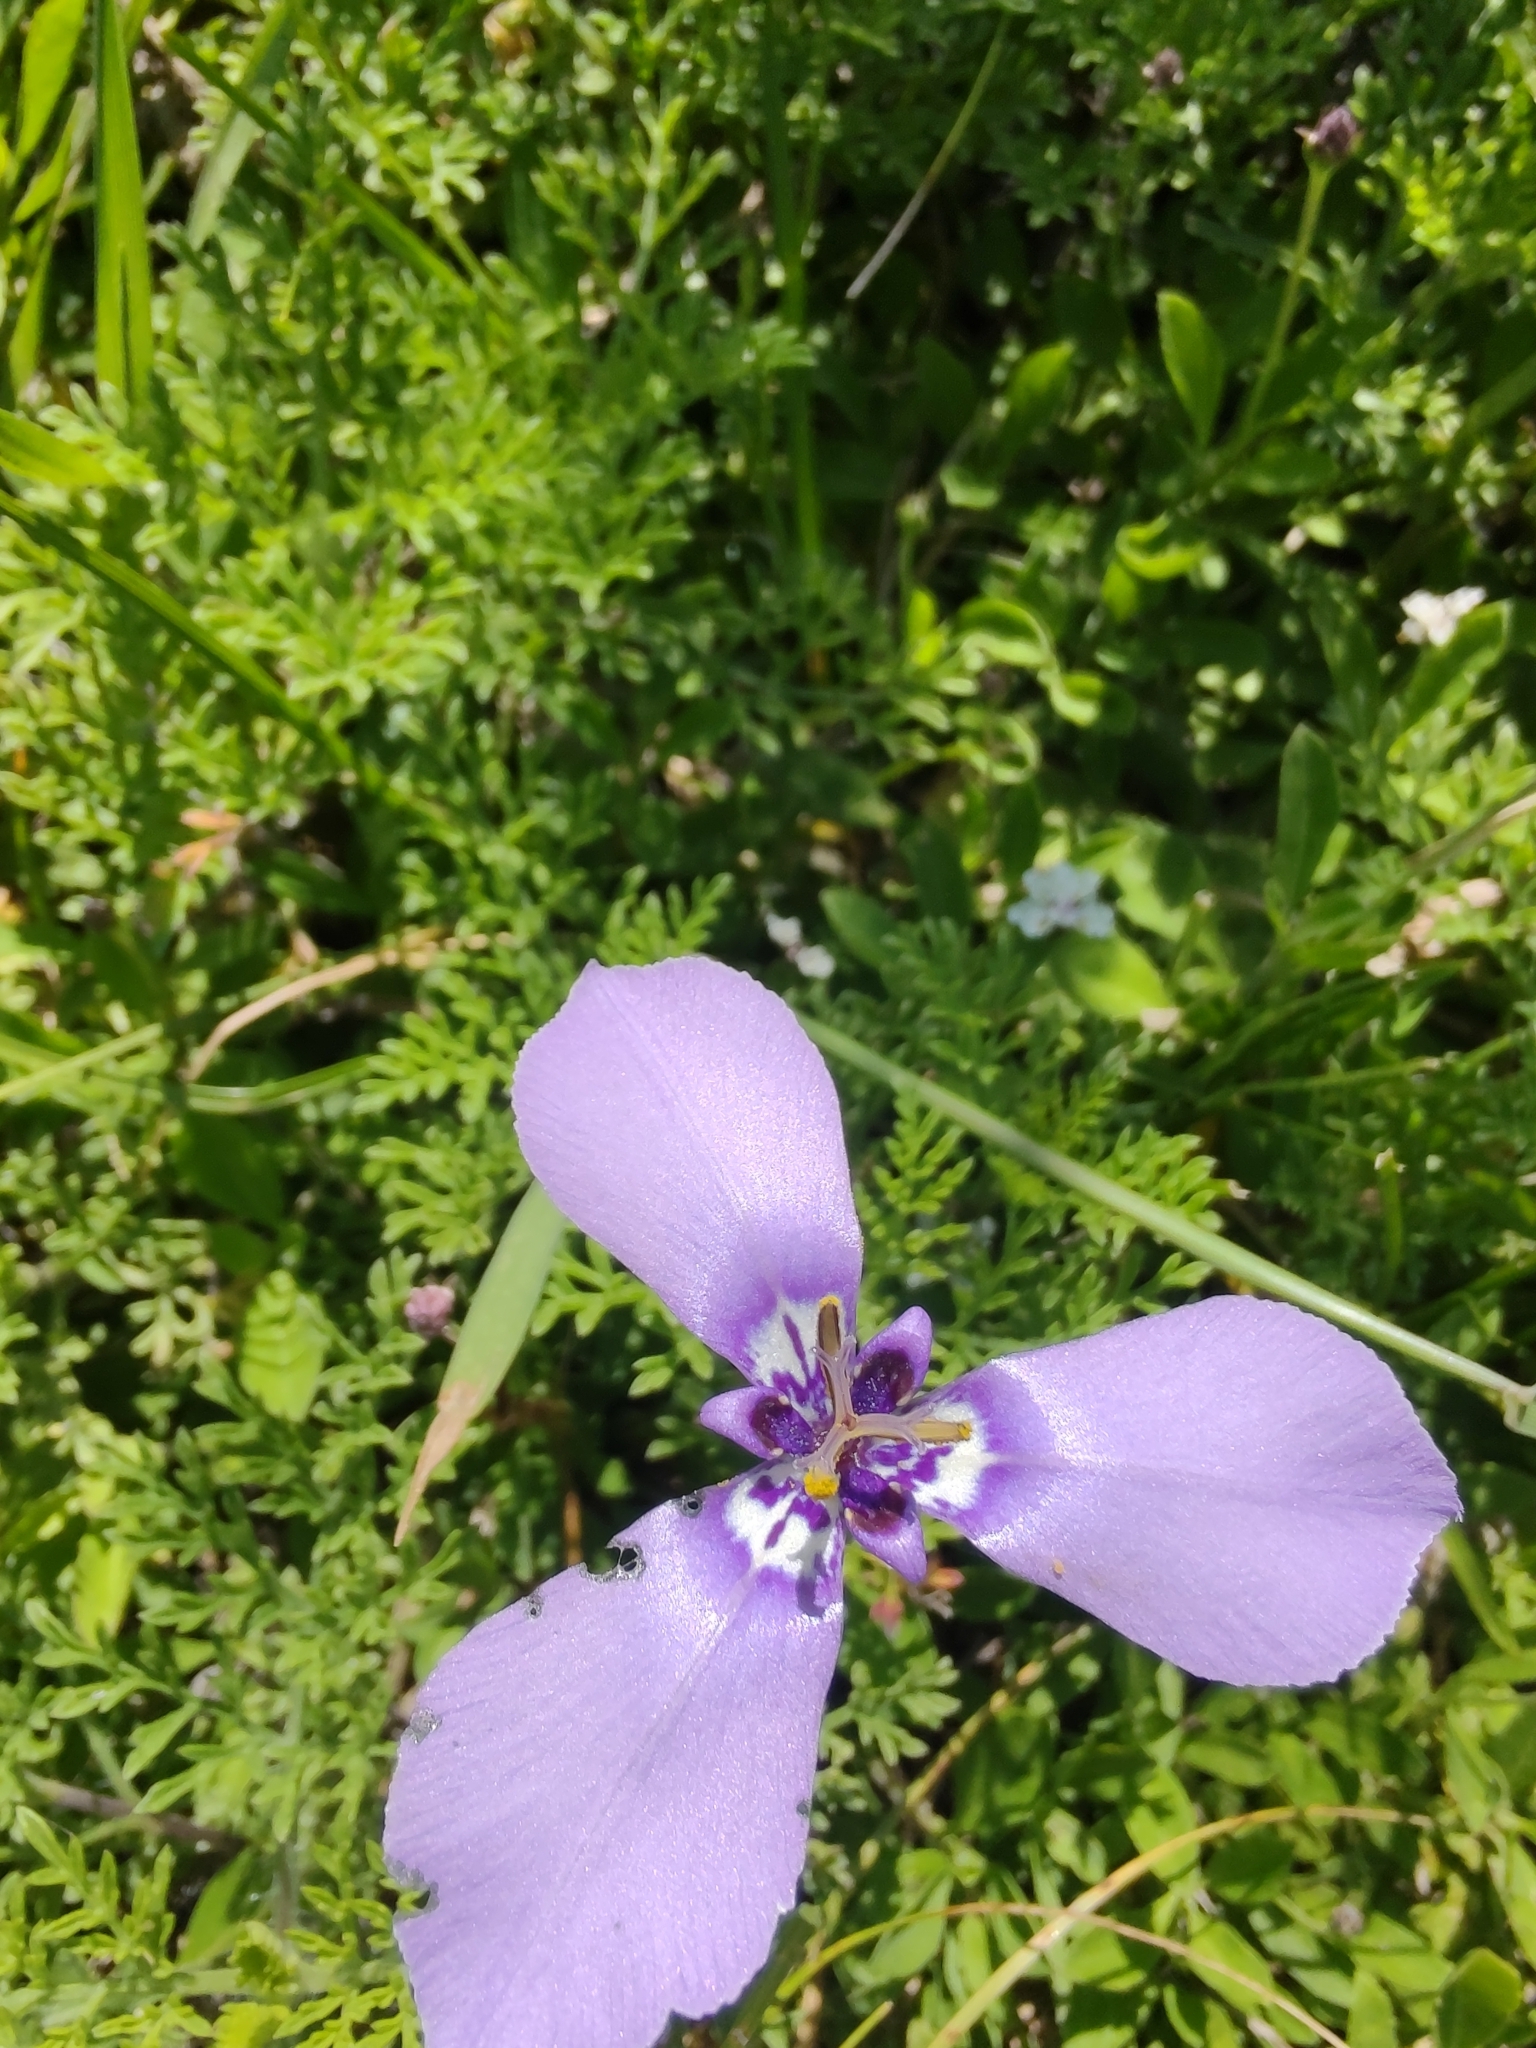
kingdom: Plantae
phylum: Tracheophyta
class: Liliopsida
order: Asparagales
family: Iridaceae
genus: Herbertia
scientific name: Herbertia lahue
